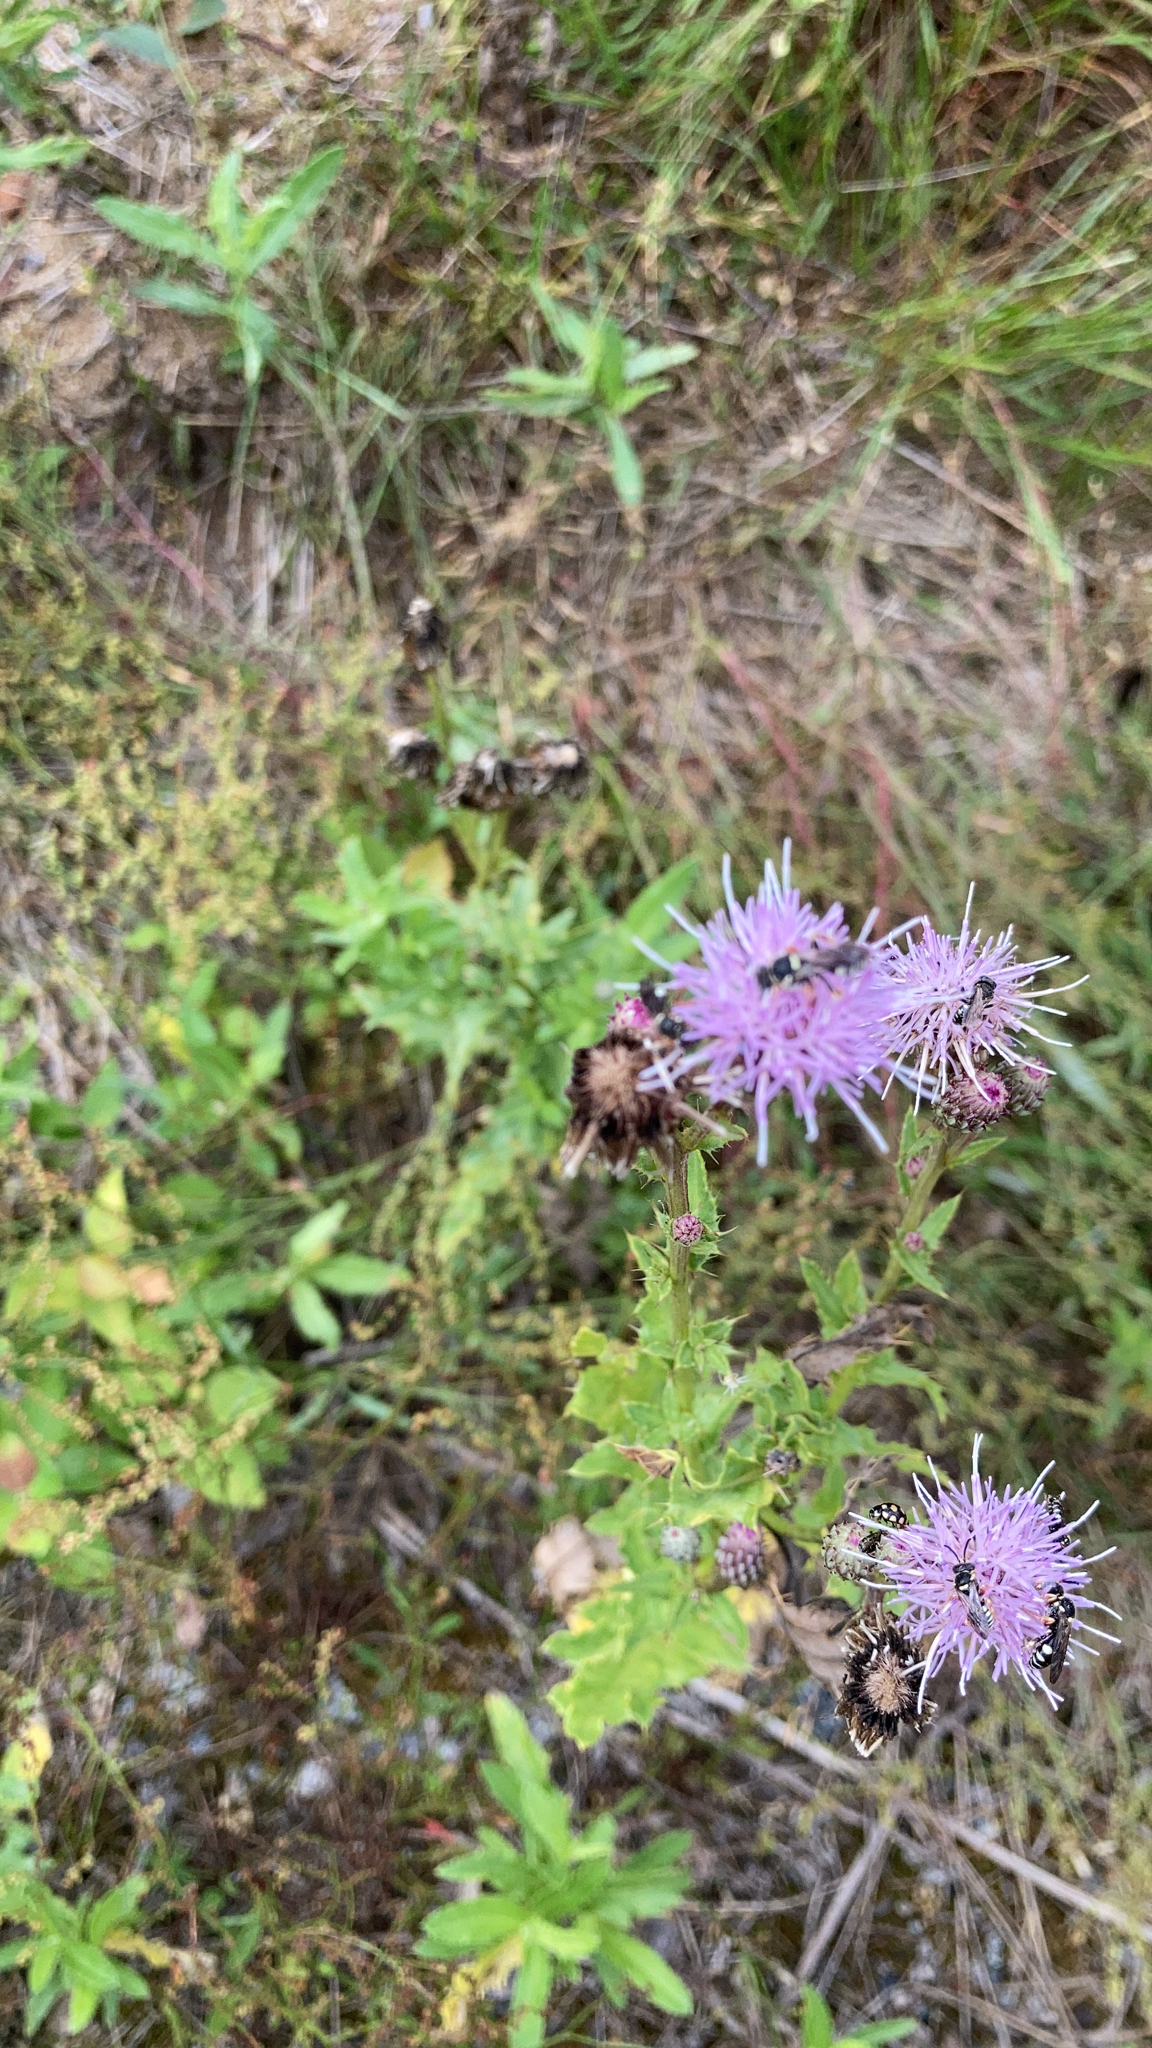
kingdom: Plantae
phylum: Tracheophyta
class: Magnoliopsida
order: Asterales
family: Asteraceae
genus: Cirsium
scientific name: Cirsium arvense
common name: Creeping thistle
